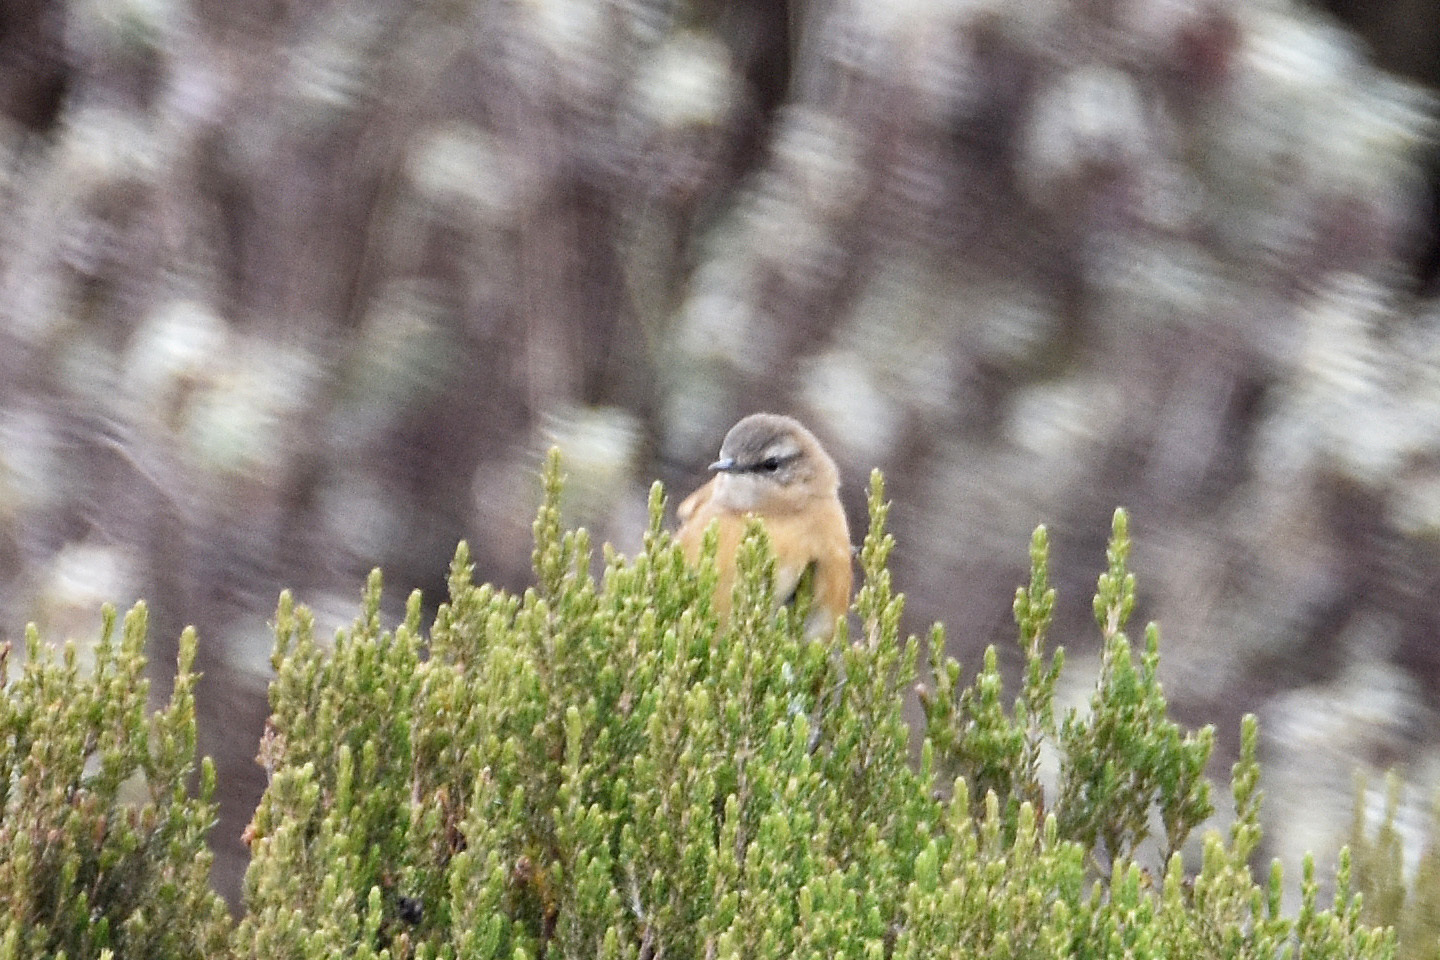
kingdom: Animalia
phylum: Chordata
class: Aves
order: Passeriformes
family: Locustellidae
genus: Bradypterus
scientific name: Bradypterus cinnamomeus
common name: Cinnamon bracken warbler
